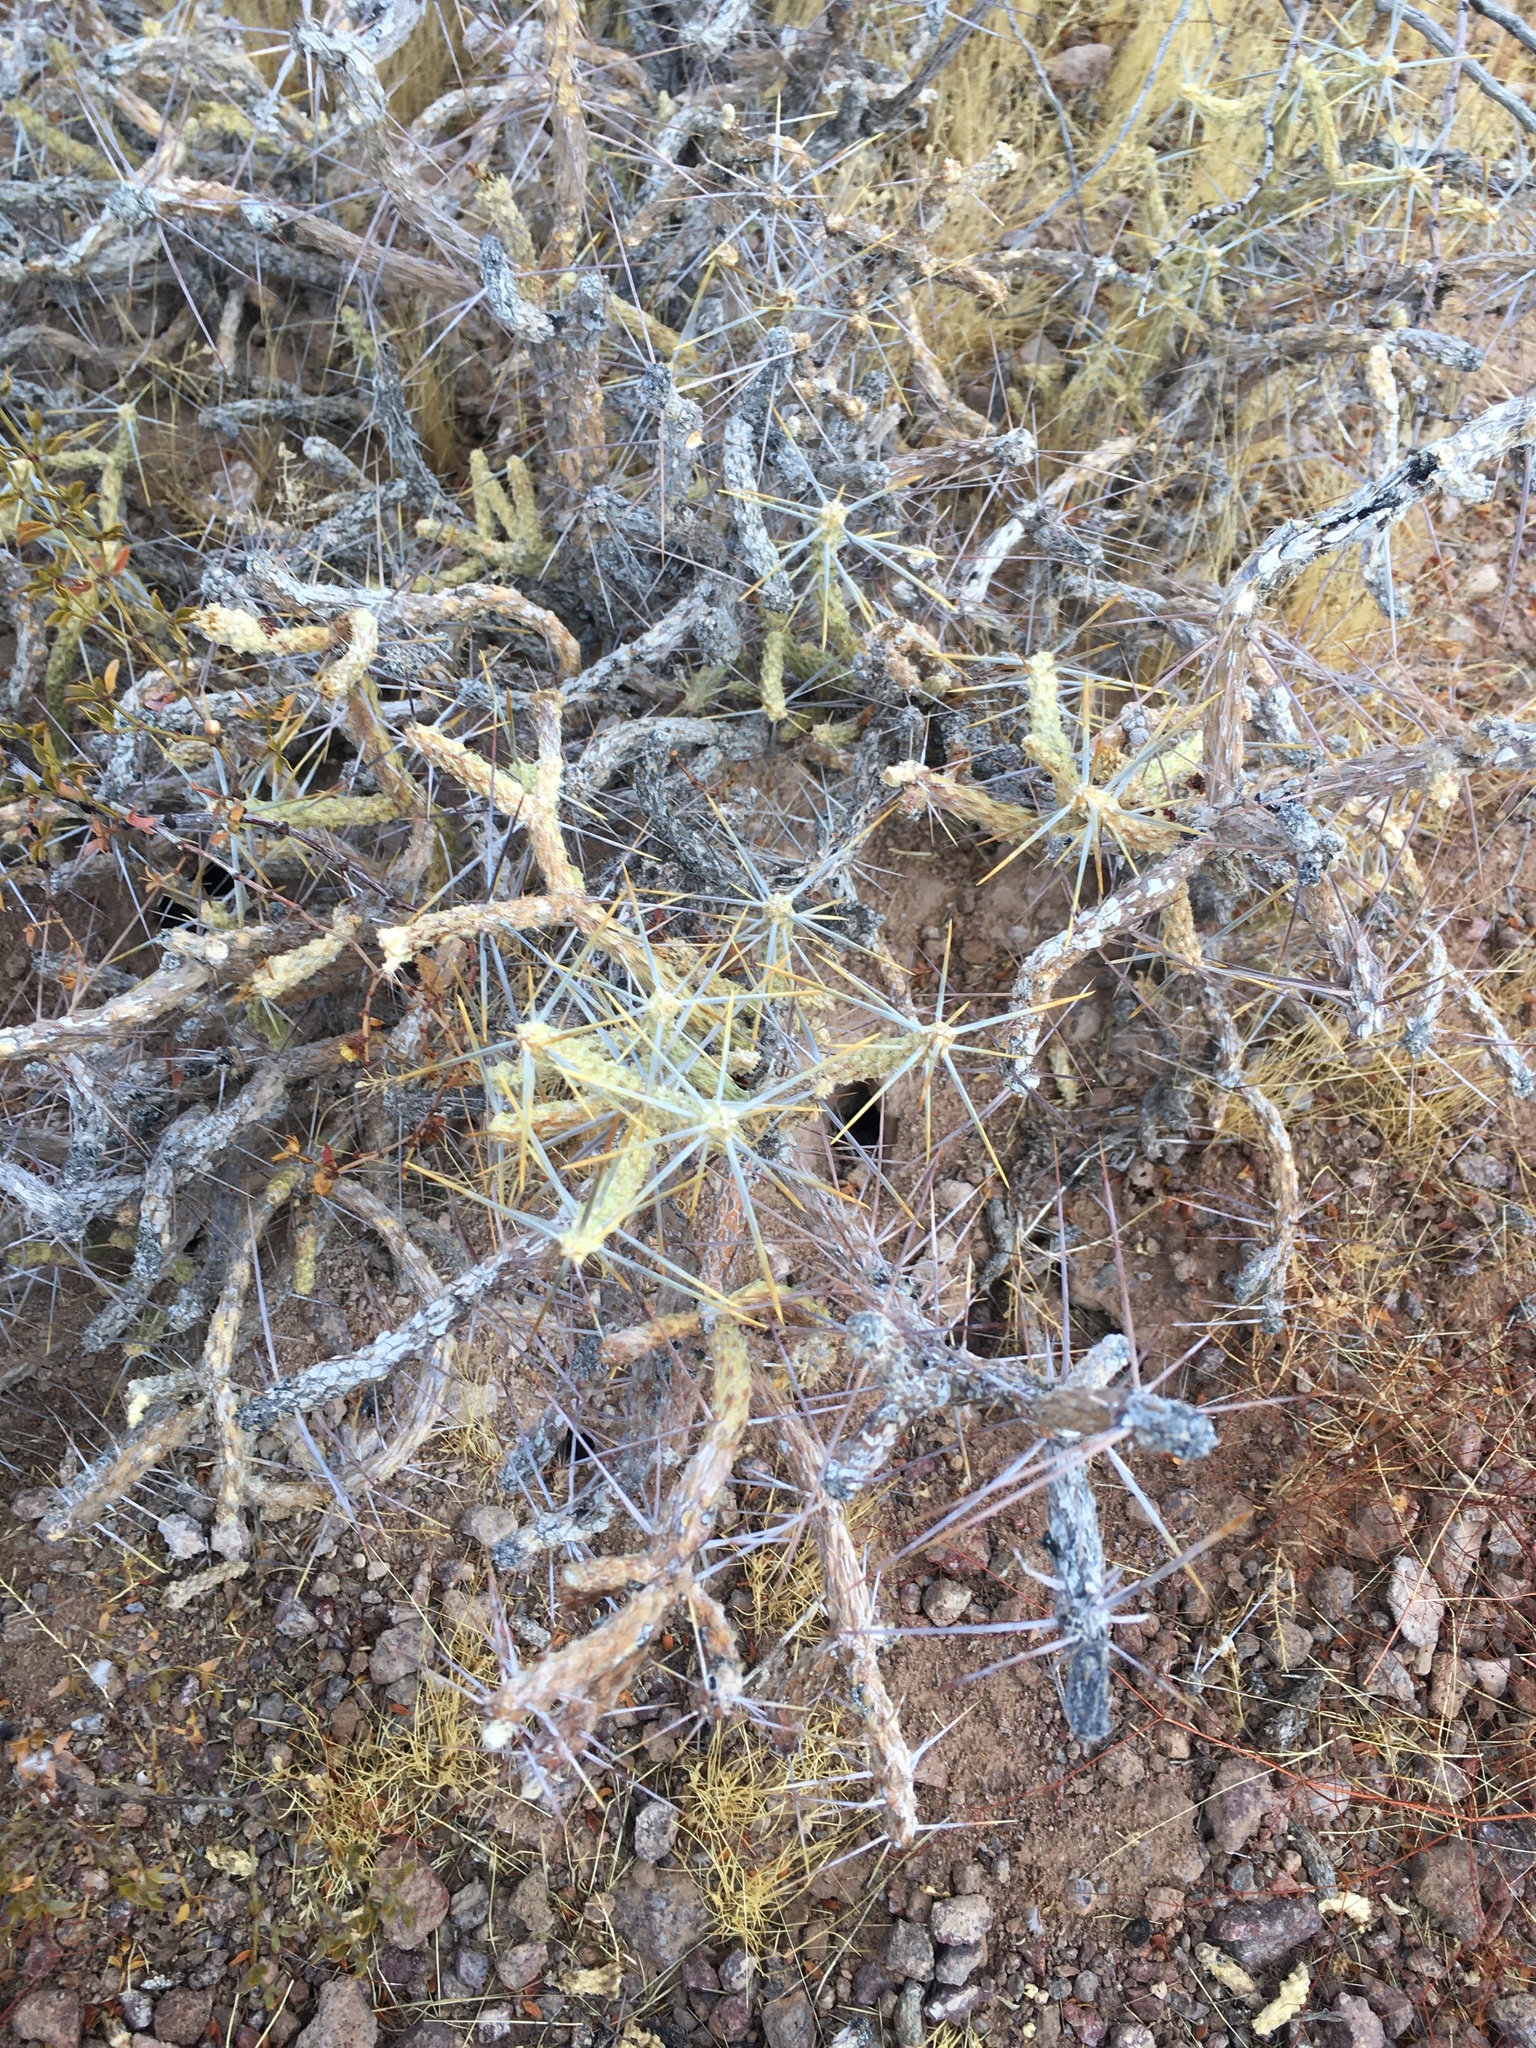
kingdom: Plantae
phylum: Tracheophyta
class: Magnoliopsida
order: Caryophyllales
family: Cactaceae
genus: Cylindropuntia
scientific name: Cylindropuntia ramosissima
